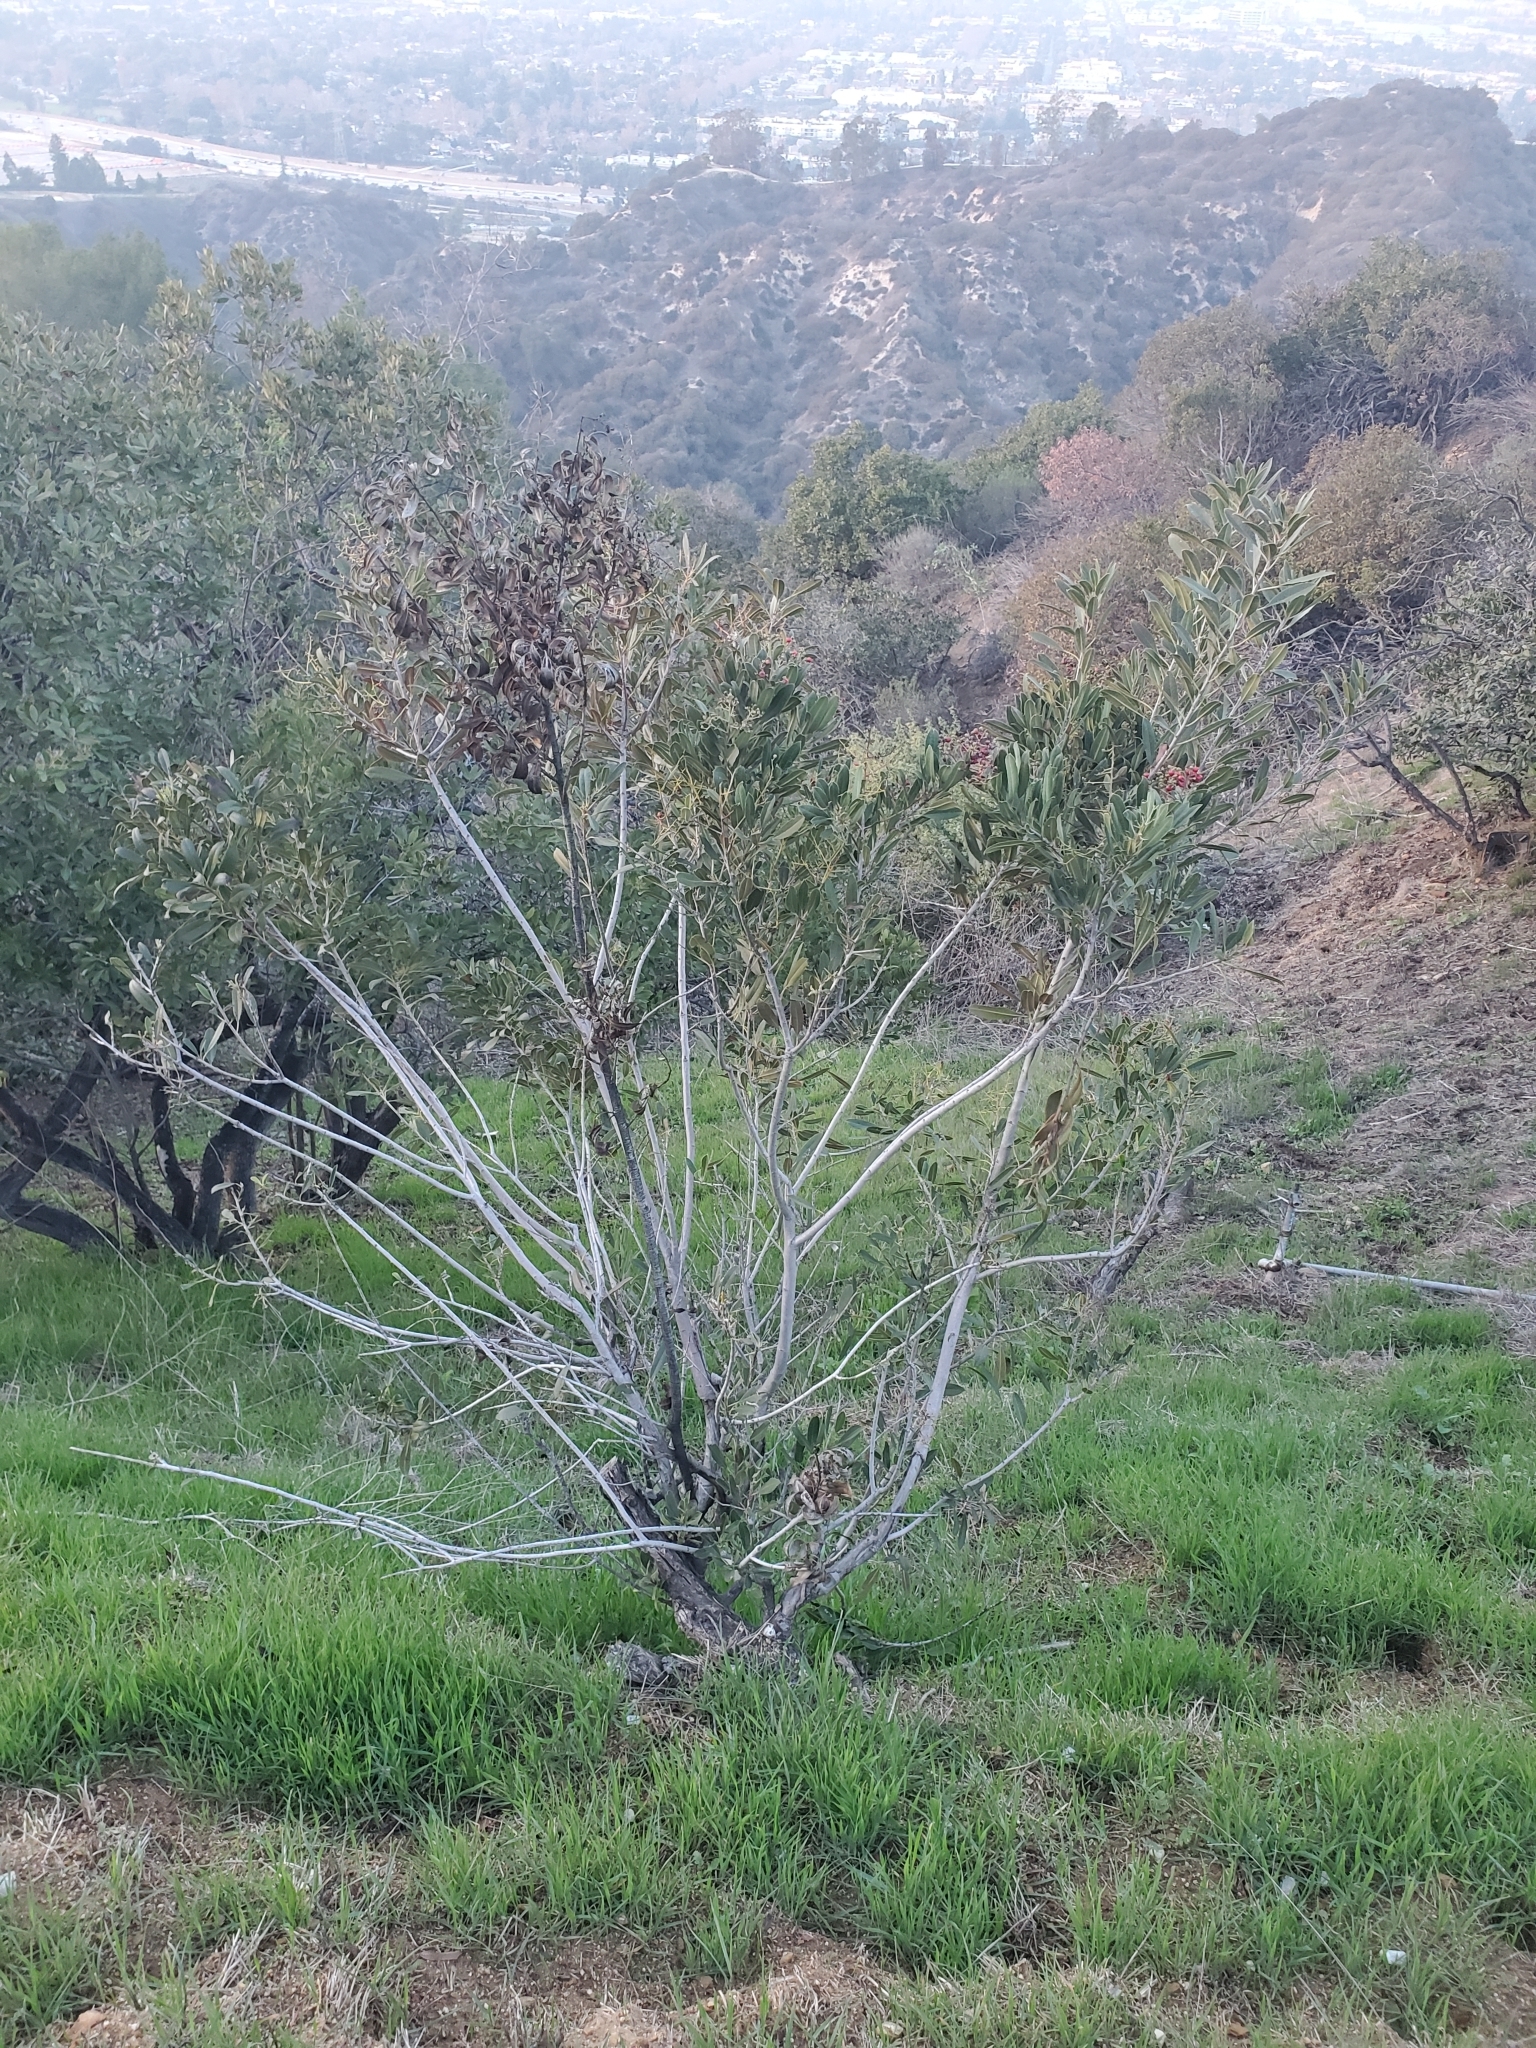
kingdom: Plantae
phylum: Tracheophyta
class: Magnoliopsida
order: Rosales
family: Rosaceae
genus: Heteromeles
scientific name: Heteromeles arbutifolia
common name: California-holly
